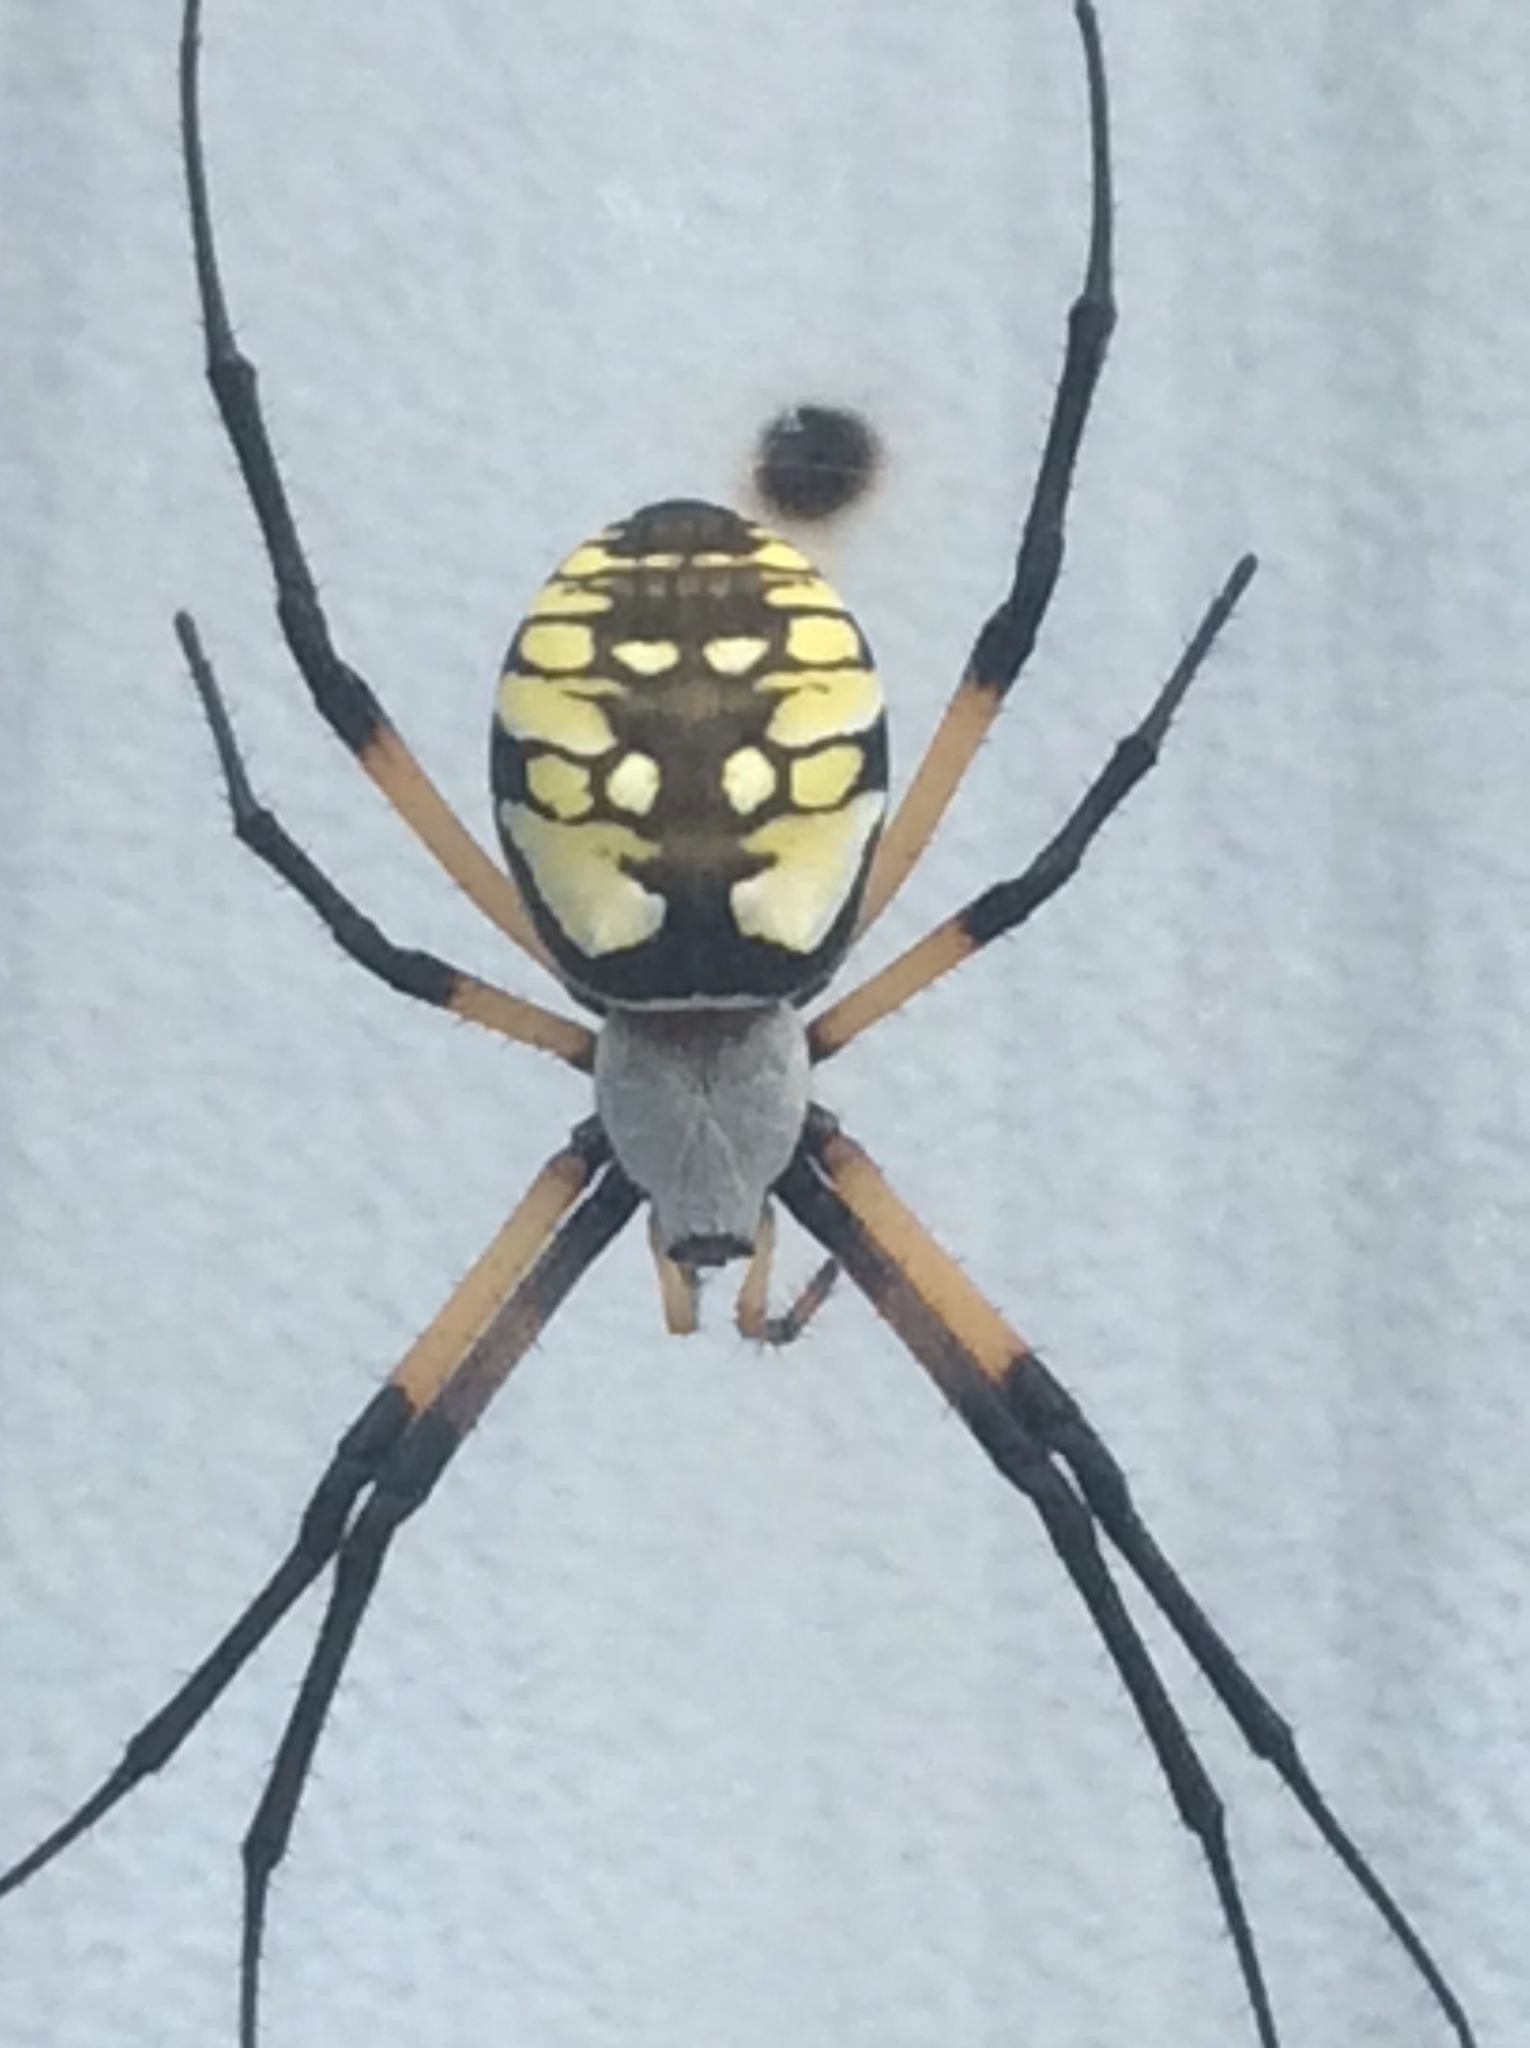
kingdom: Animalia
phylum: Arthropoda
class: Arachnida
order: Araneae
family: Araneidae
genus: Argiope
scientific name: Argiope aurantia
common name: Orb weavers
